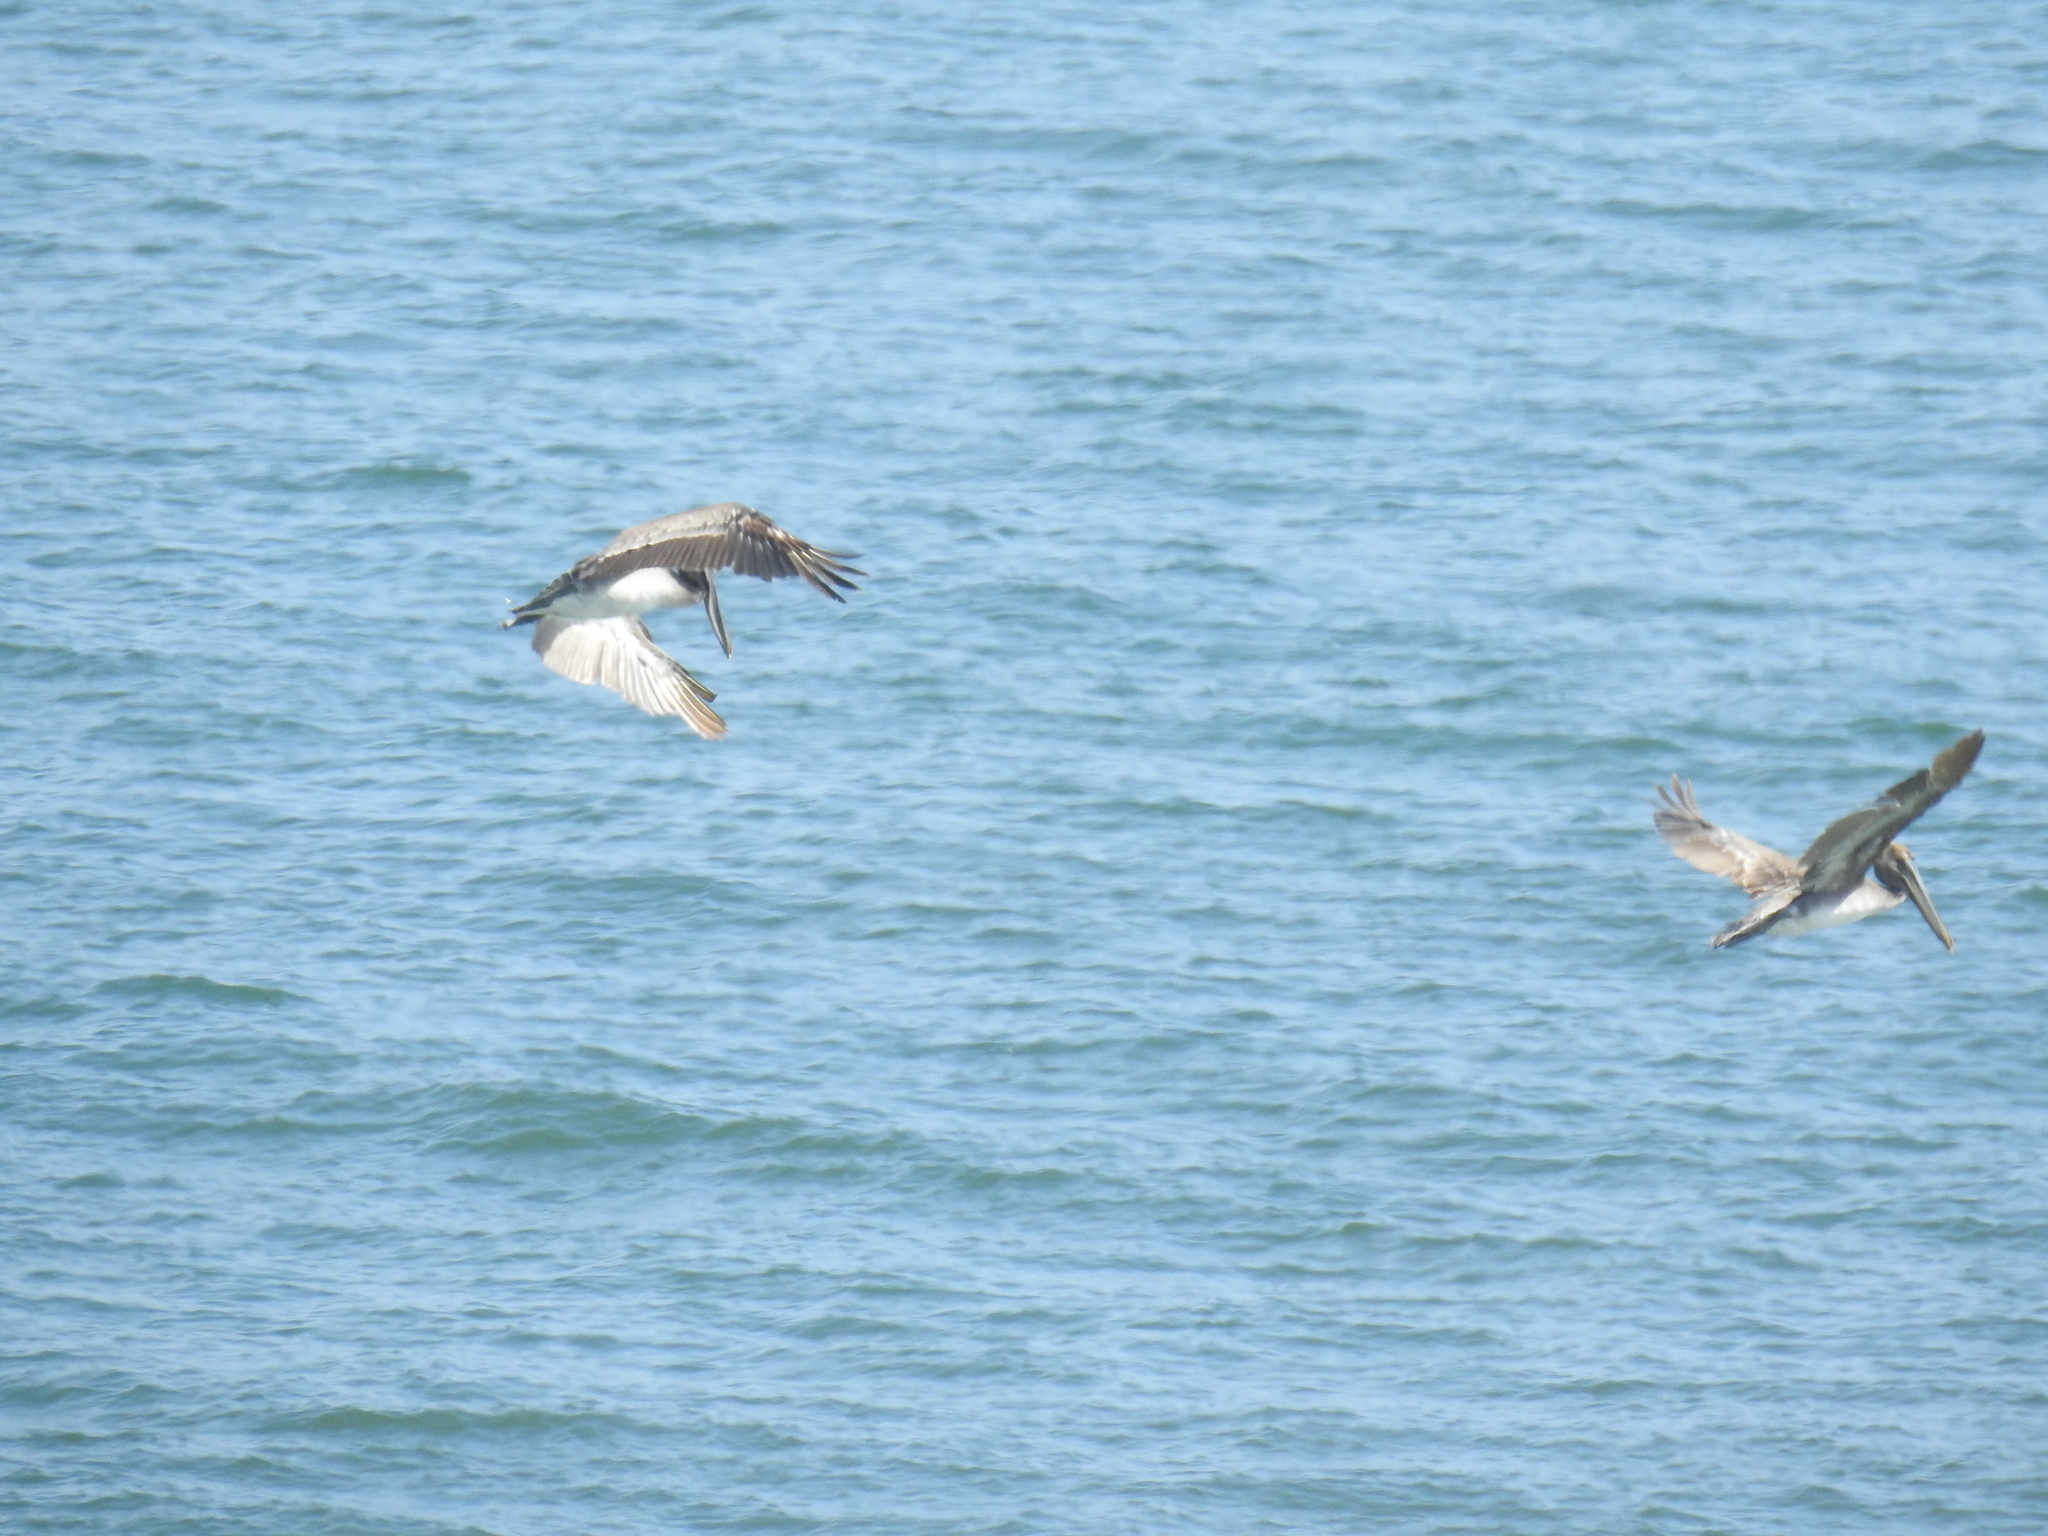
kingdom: Animalia
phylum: Chordata
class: Aves
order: Pelecaniformes
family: Pelecanidae
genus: Pelecanus
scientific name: Pelecanus occidentalis
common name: Brown pelican
